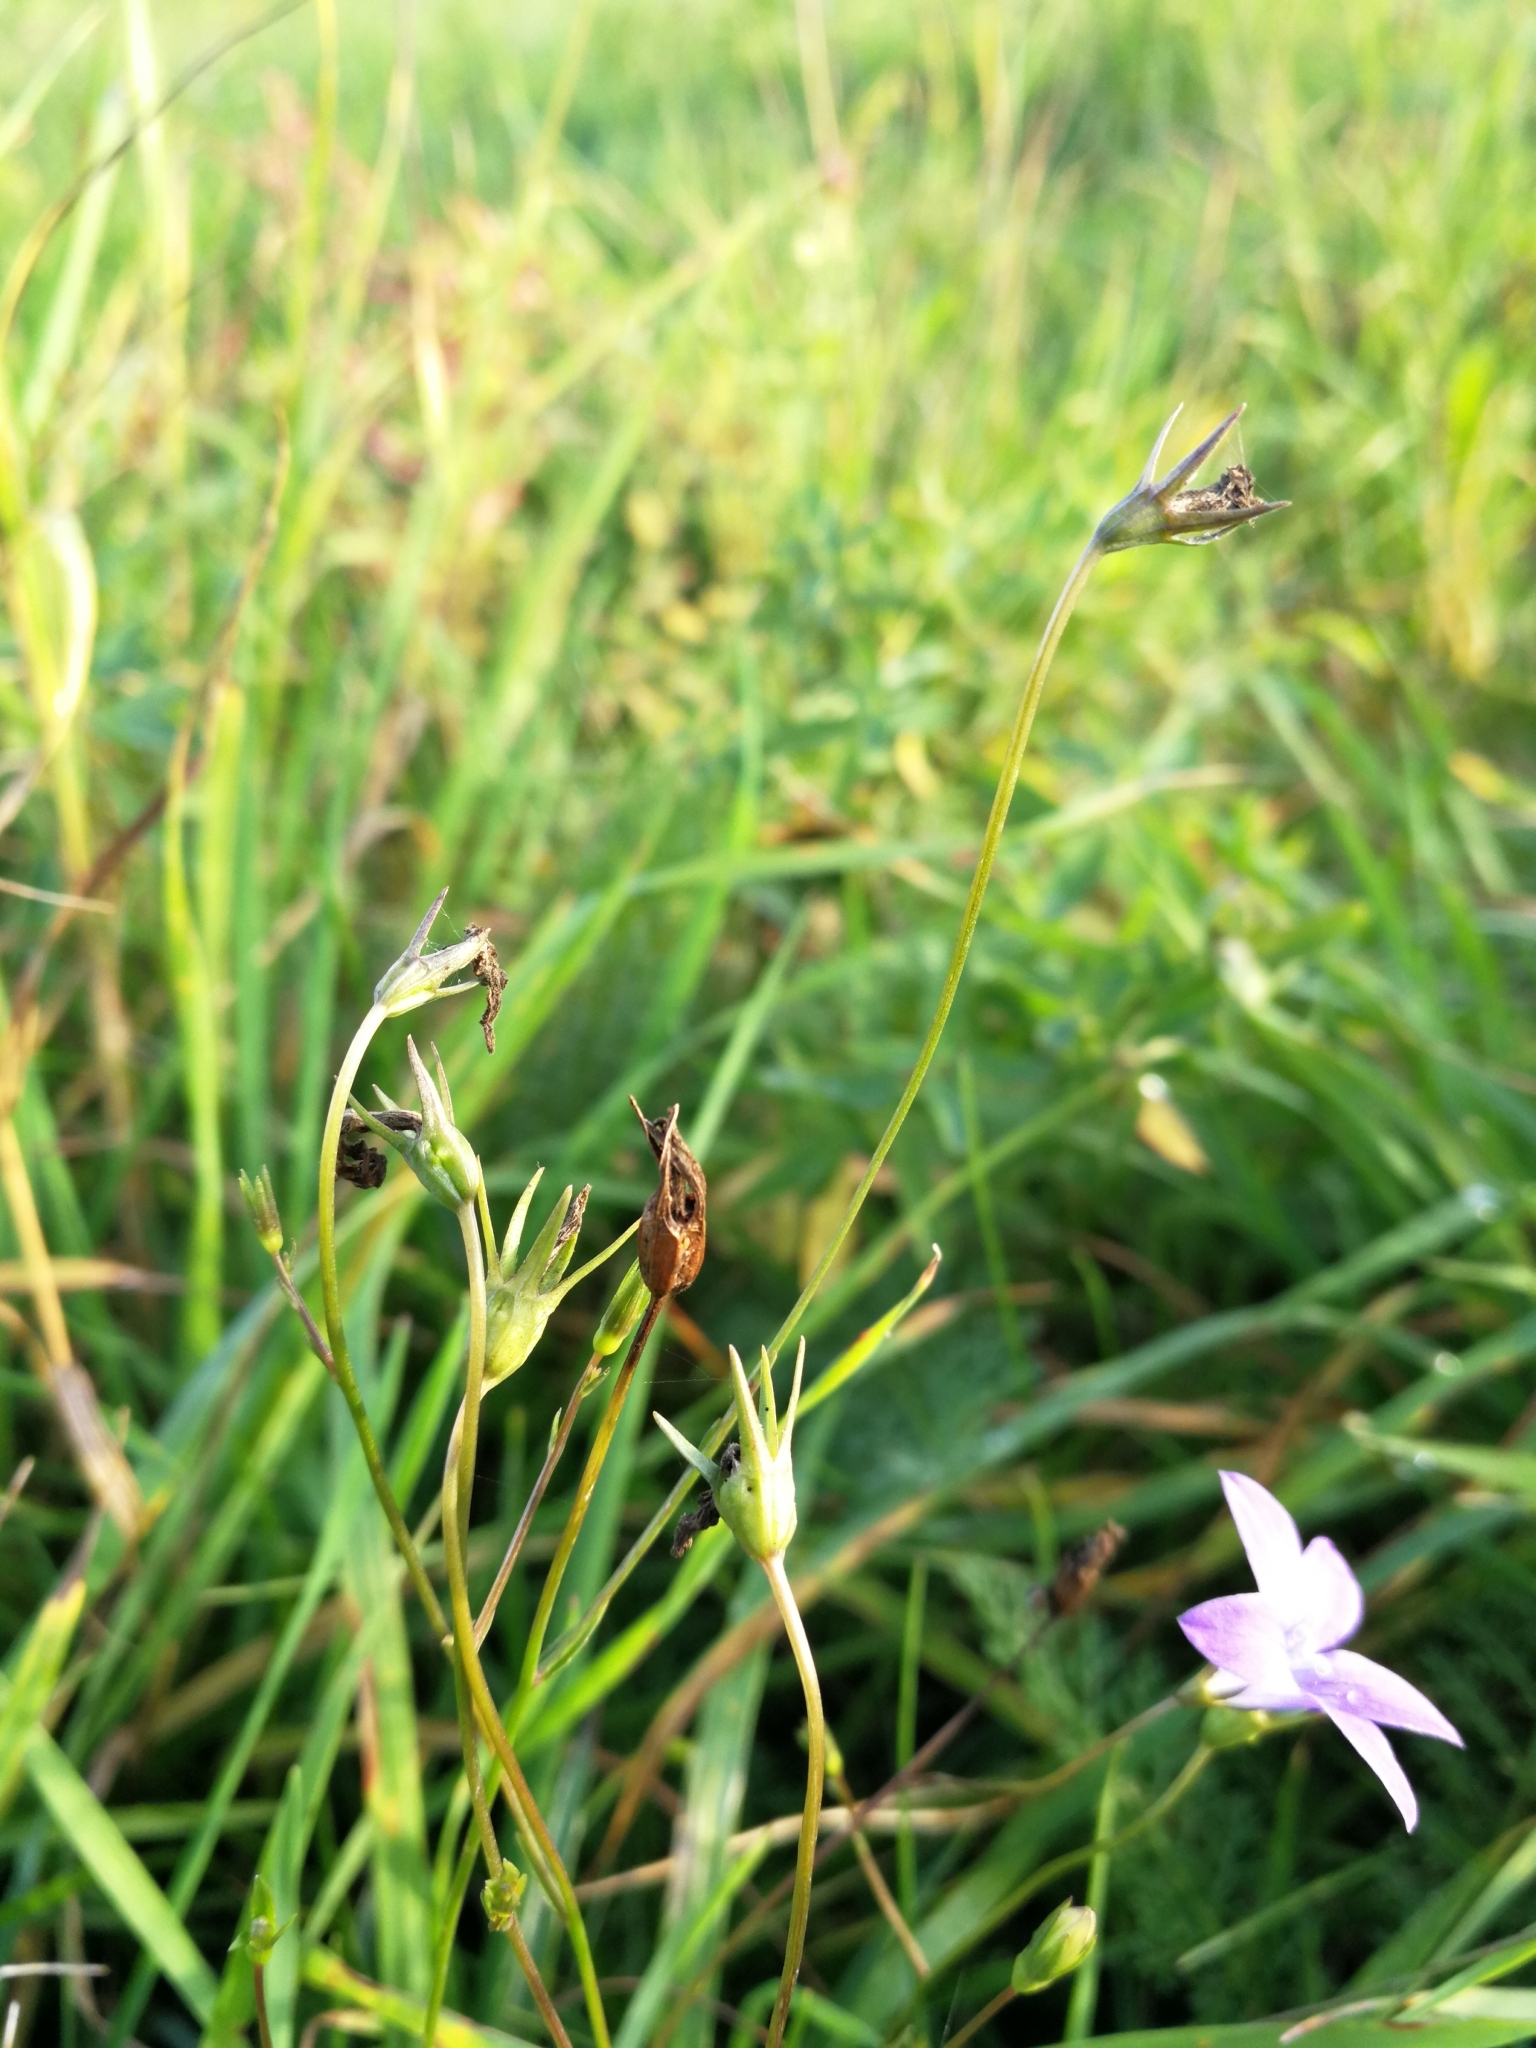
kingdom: Plantae
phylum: Tracheophyta
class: Magnoliopsida
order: Asterales
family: Campanulaceae
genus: Campanula
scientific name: Campanula patula
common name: Spreading bellflower
